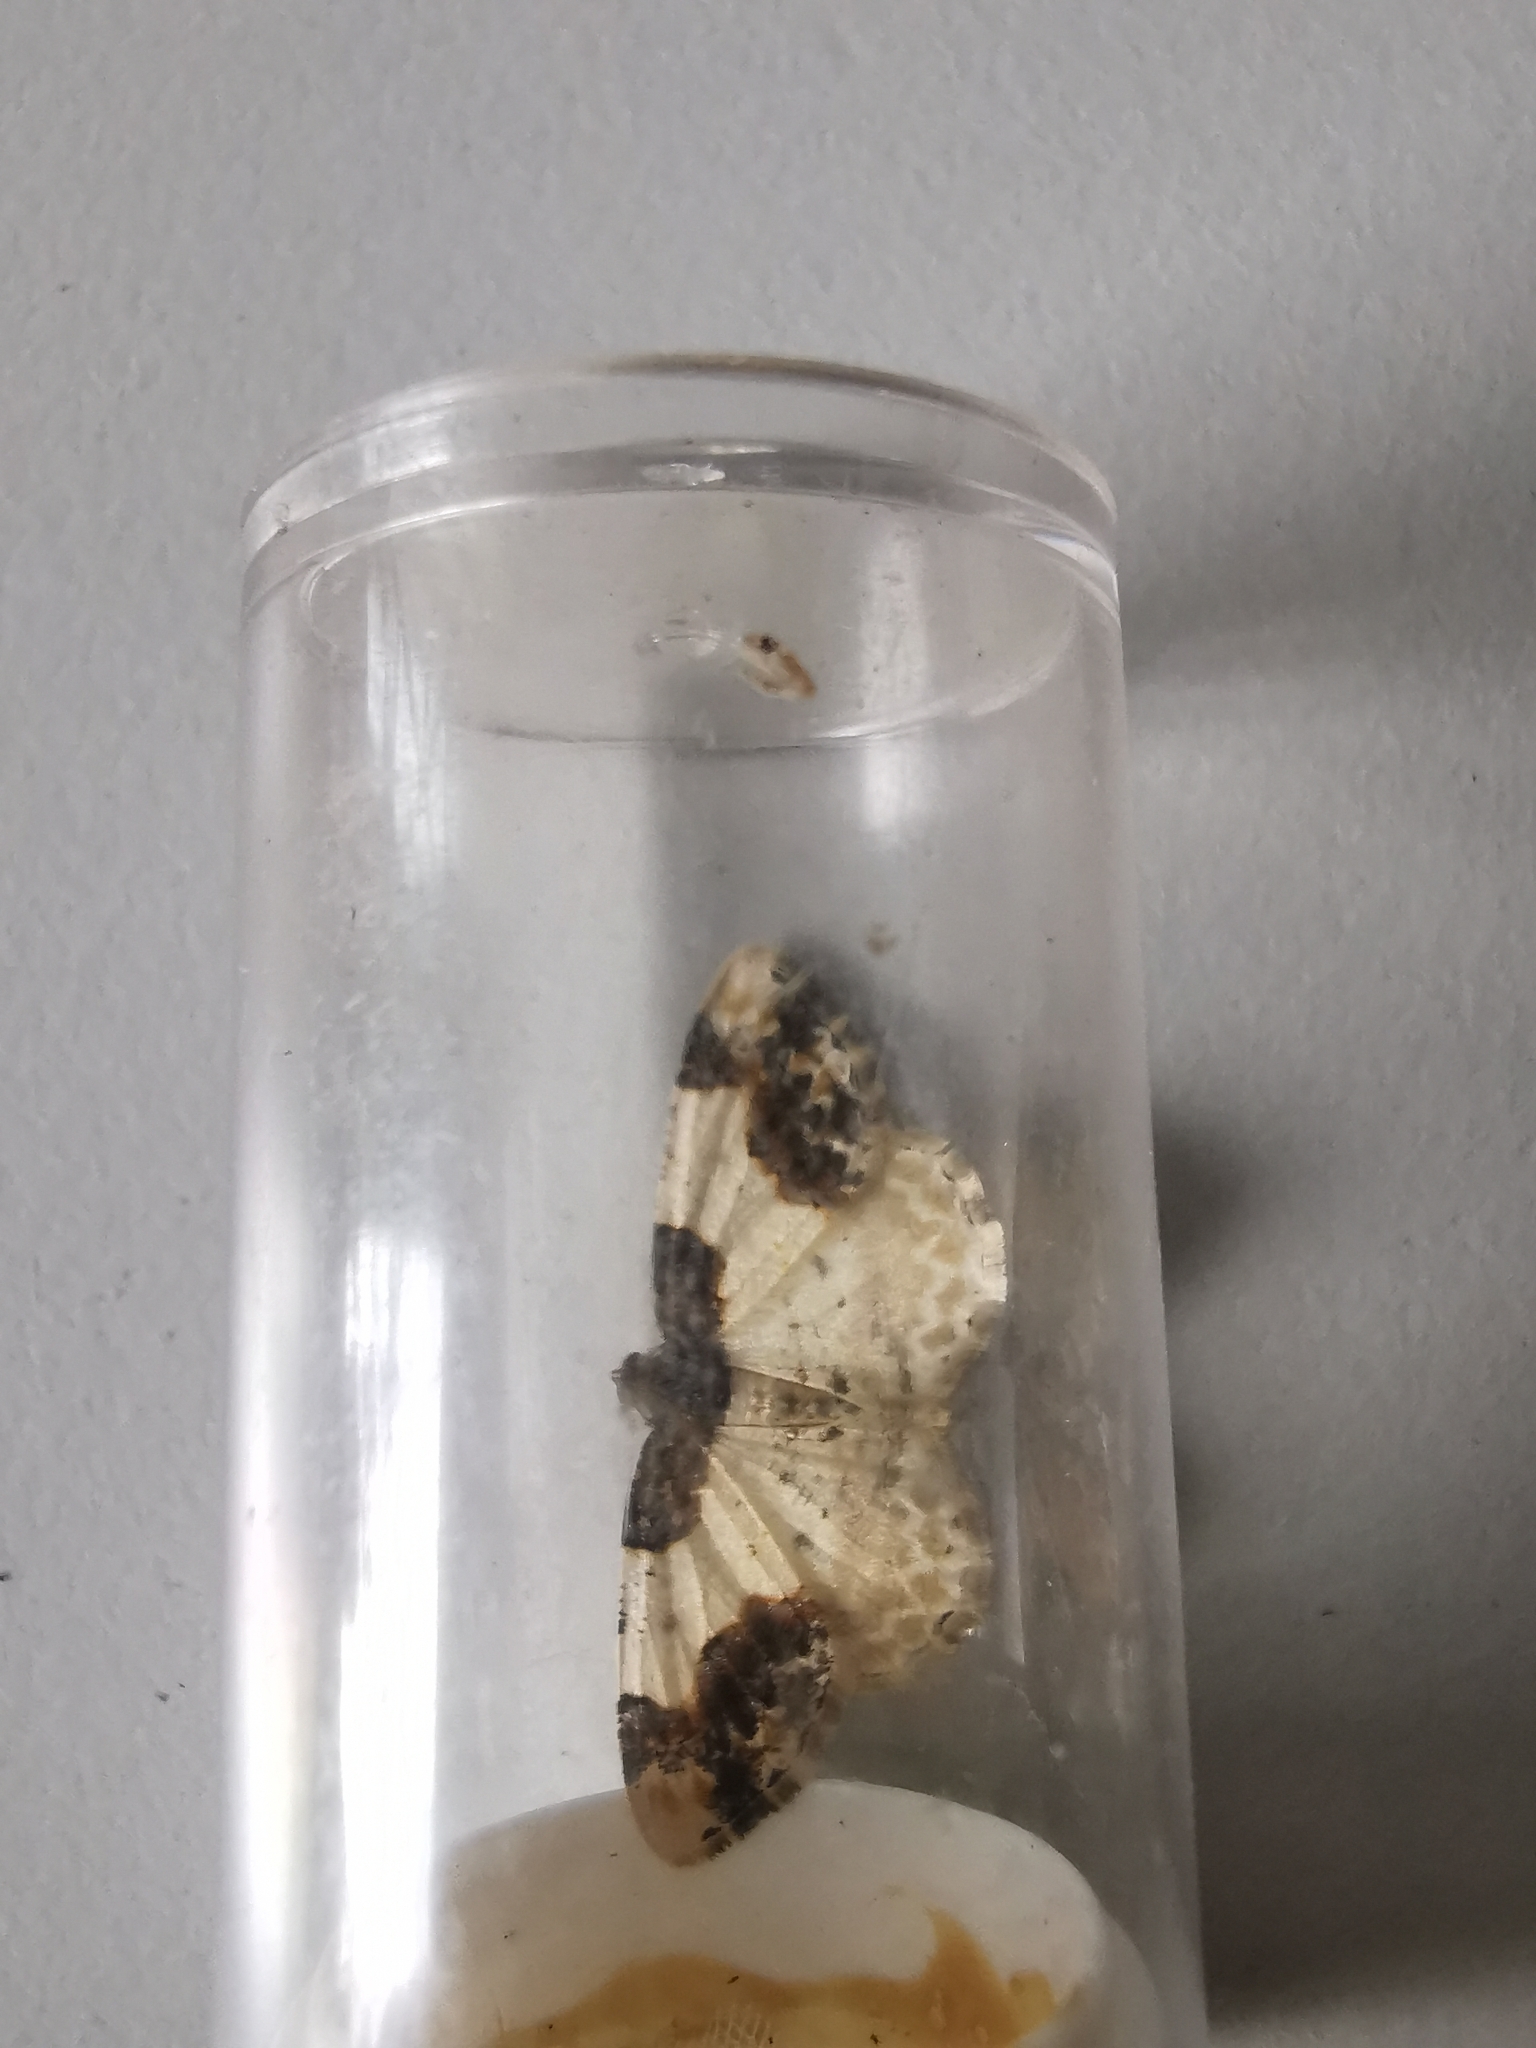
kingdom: Animalia
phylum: Arthropoda
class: Insecta
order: Lepidoptera
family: Geometridae
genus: Ligdia
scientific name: Ligdia adustata
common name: Scorched carpet
